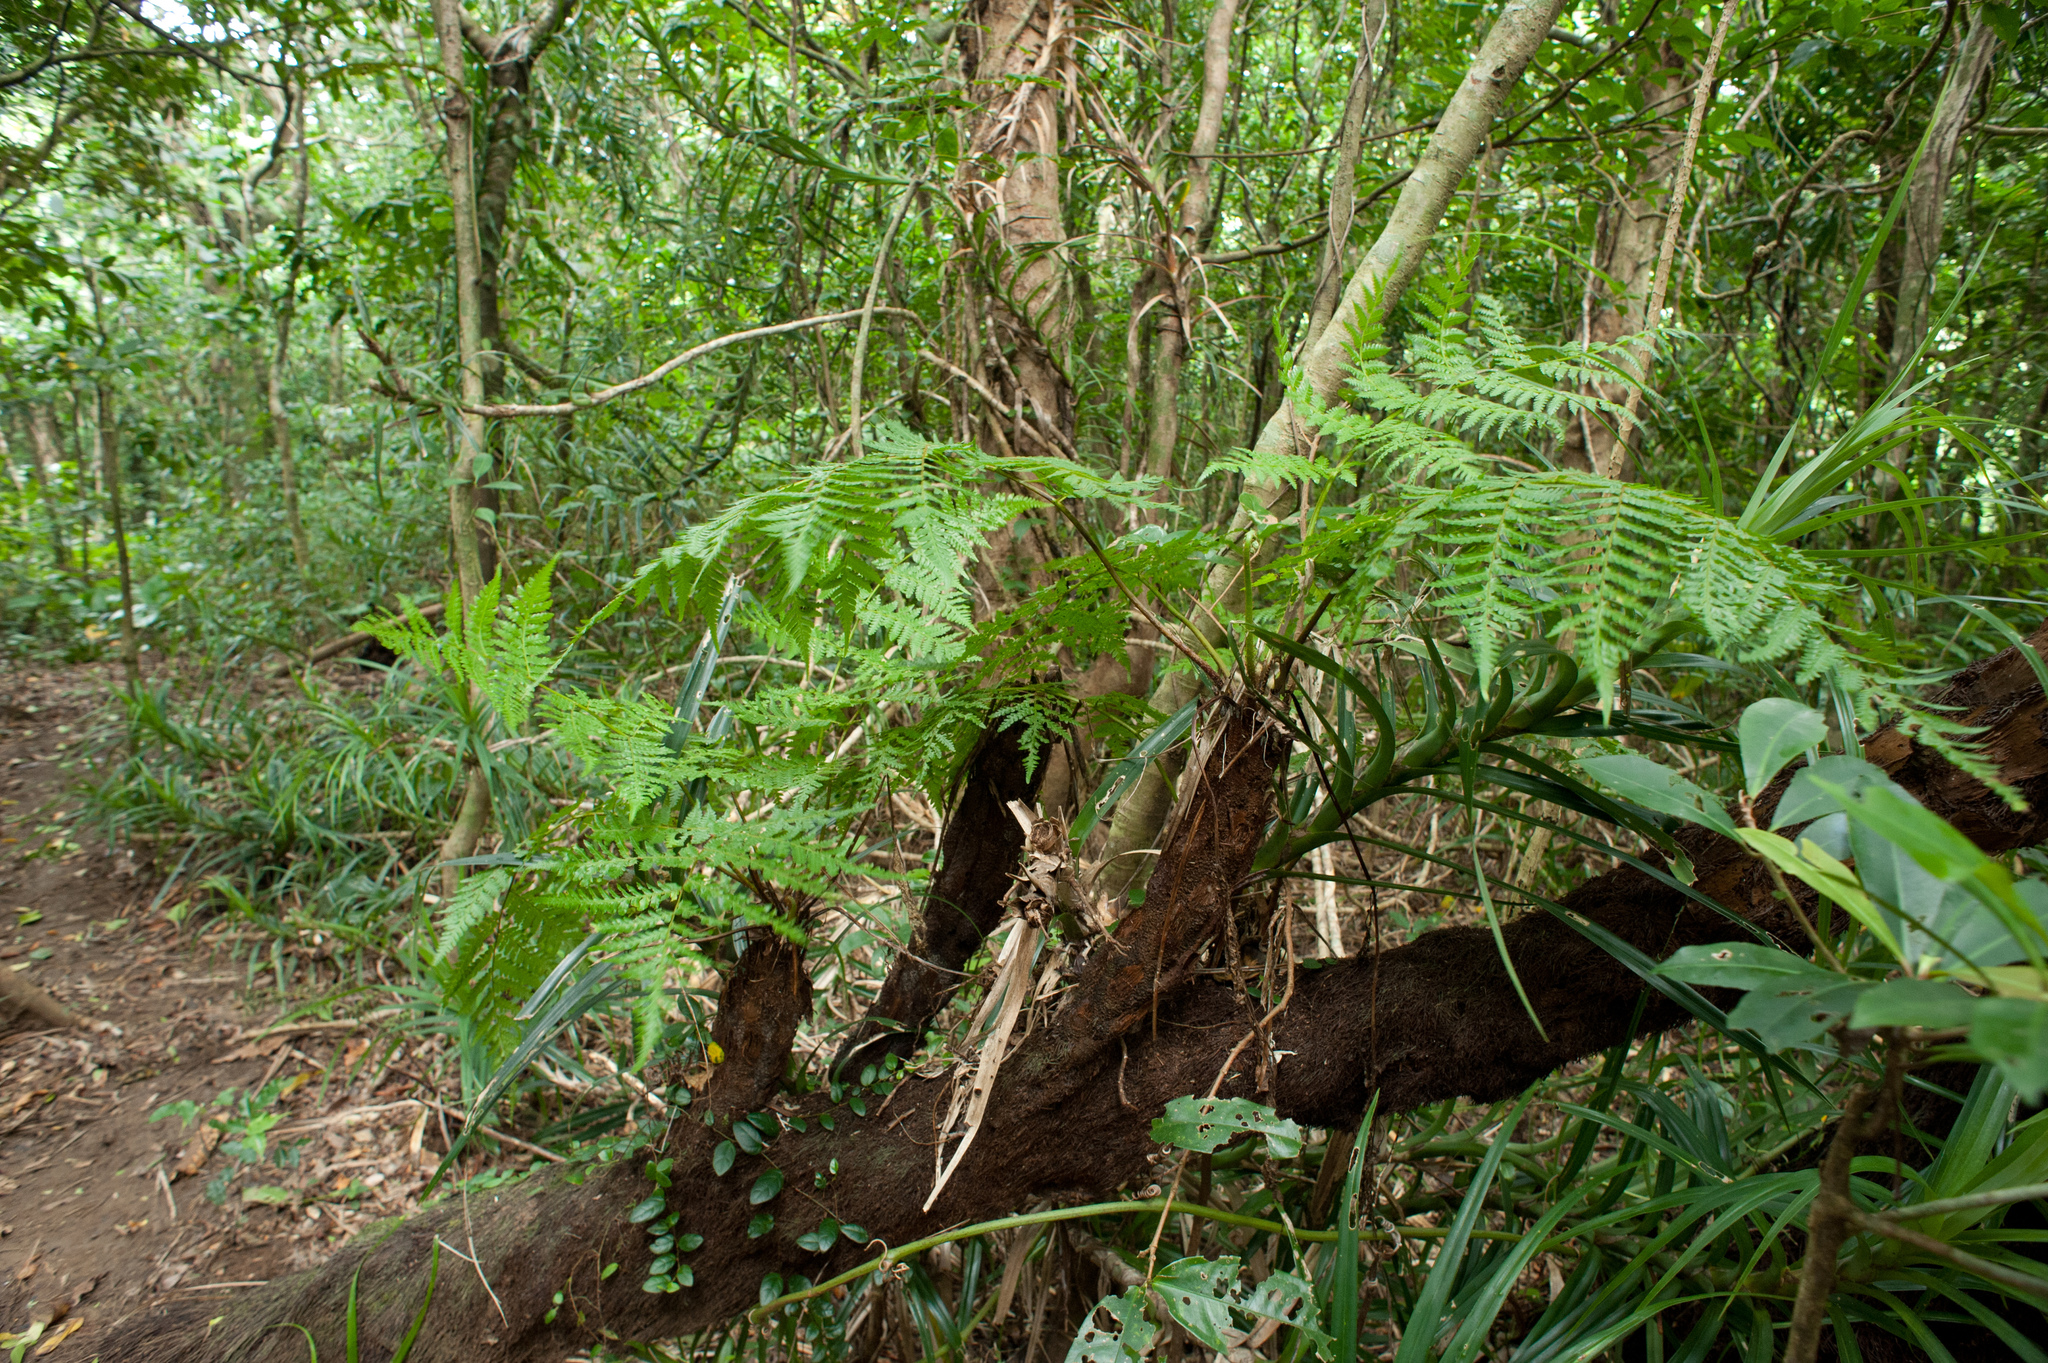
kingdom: Plantae
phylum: Tracheophyta
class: Polypodiopsida
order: Cyatheales
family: Cyatheaceae
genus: Alsophila
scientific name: Alsophila fenicis
